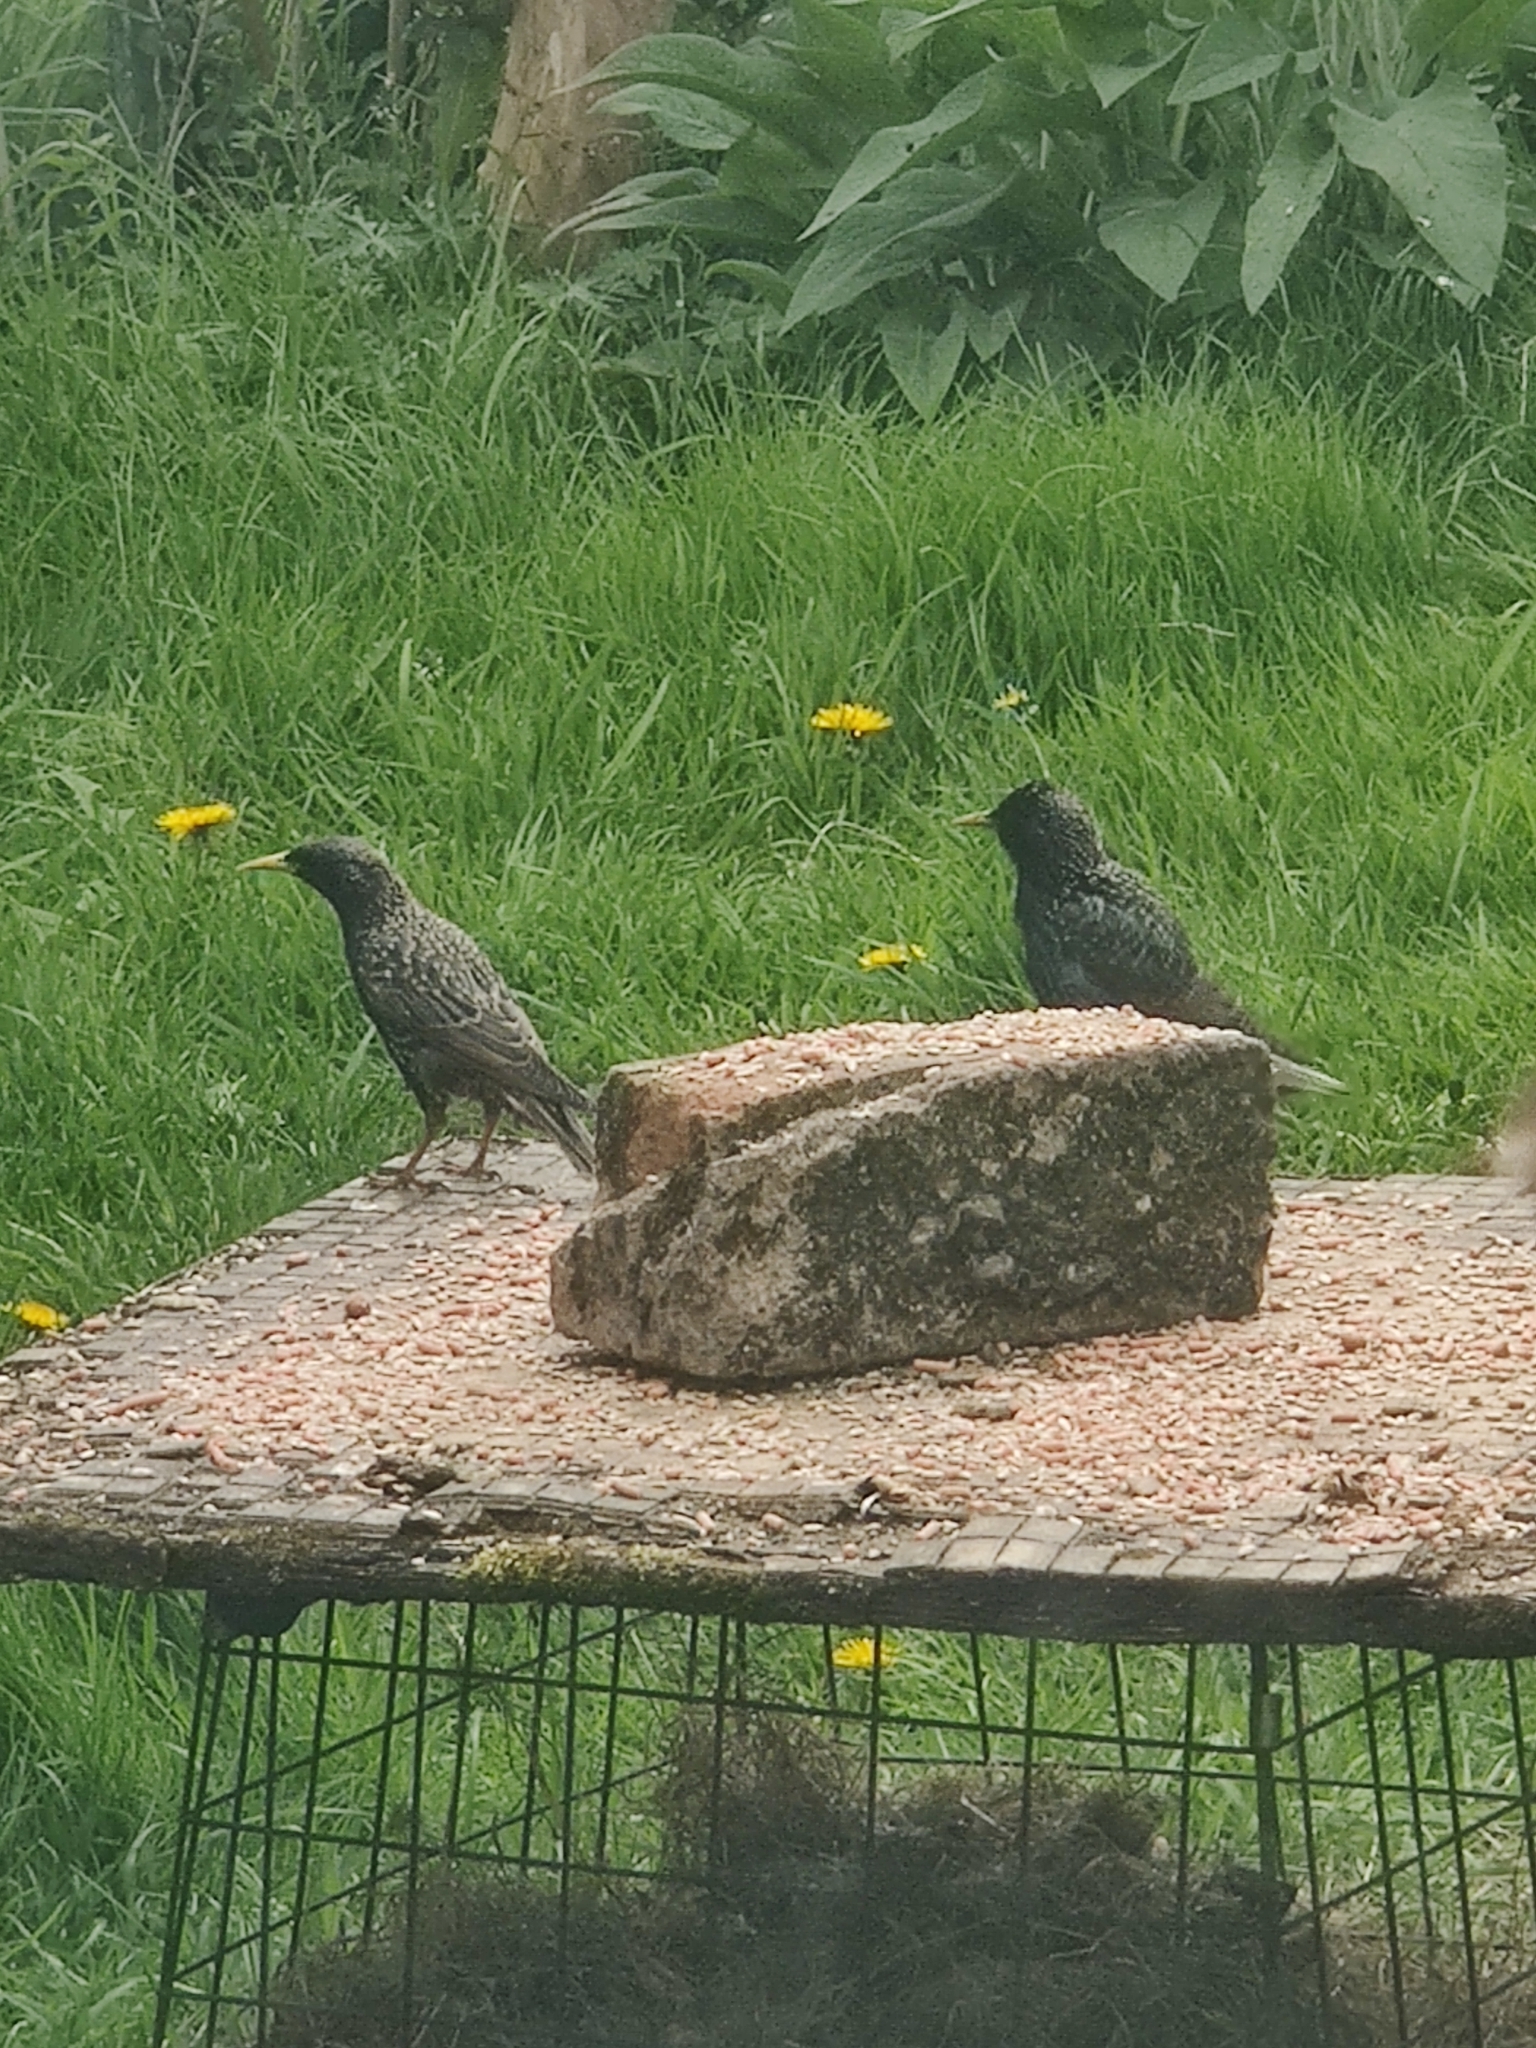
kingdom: Animalia
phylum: Chordata
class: Aves
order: Passeriformes
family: Sturnidae
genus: Sturnus
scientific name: Sturnus vulgaris
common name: Common starling
